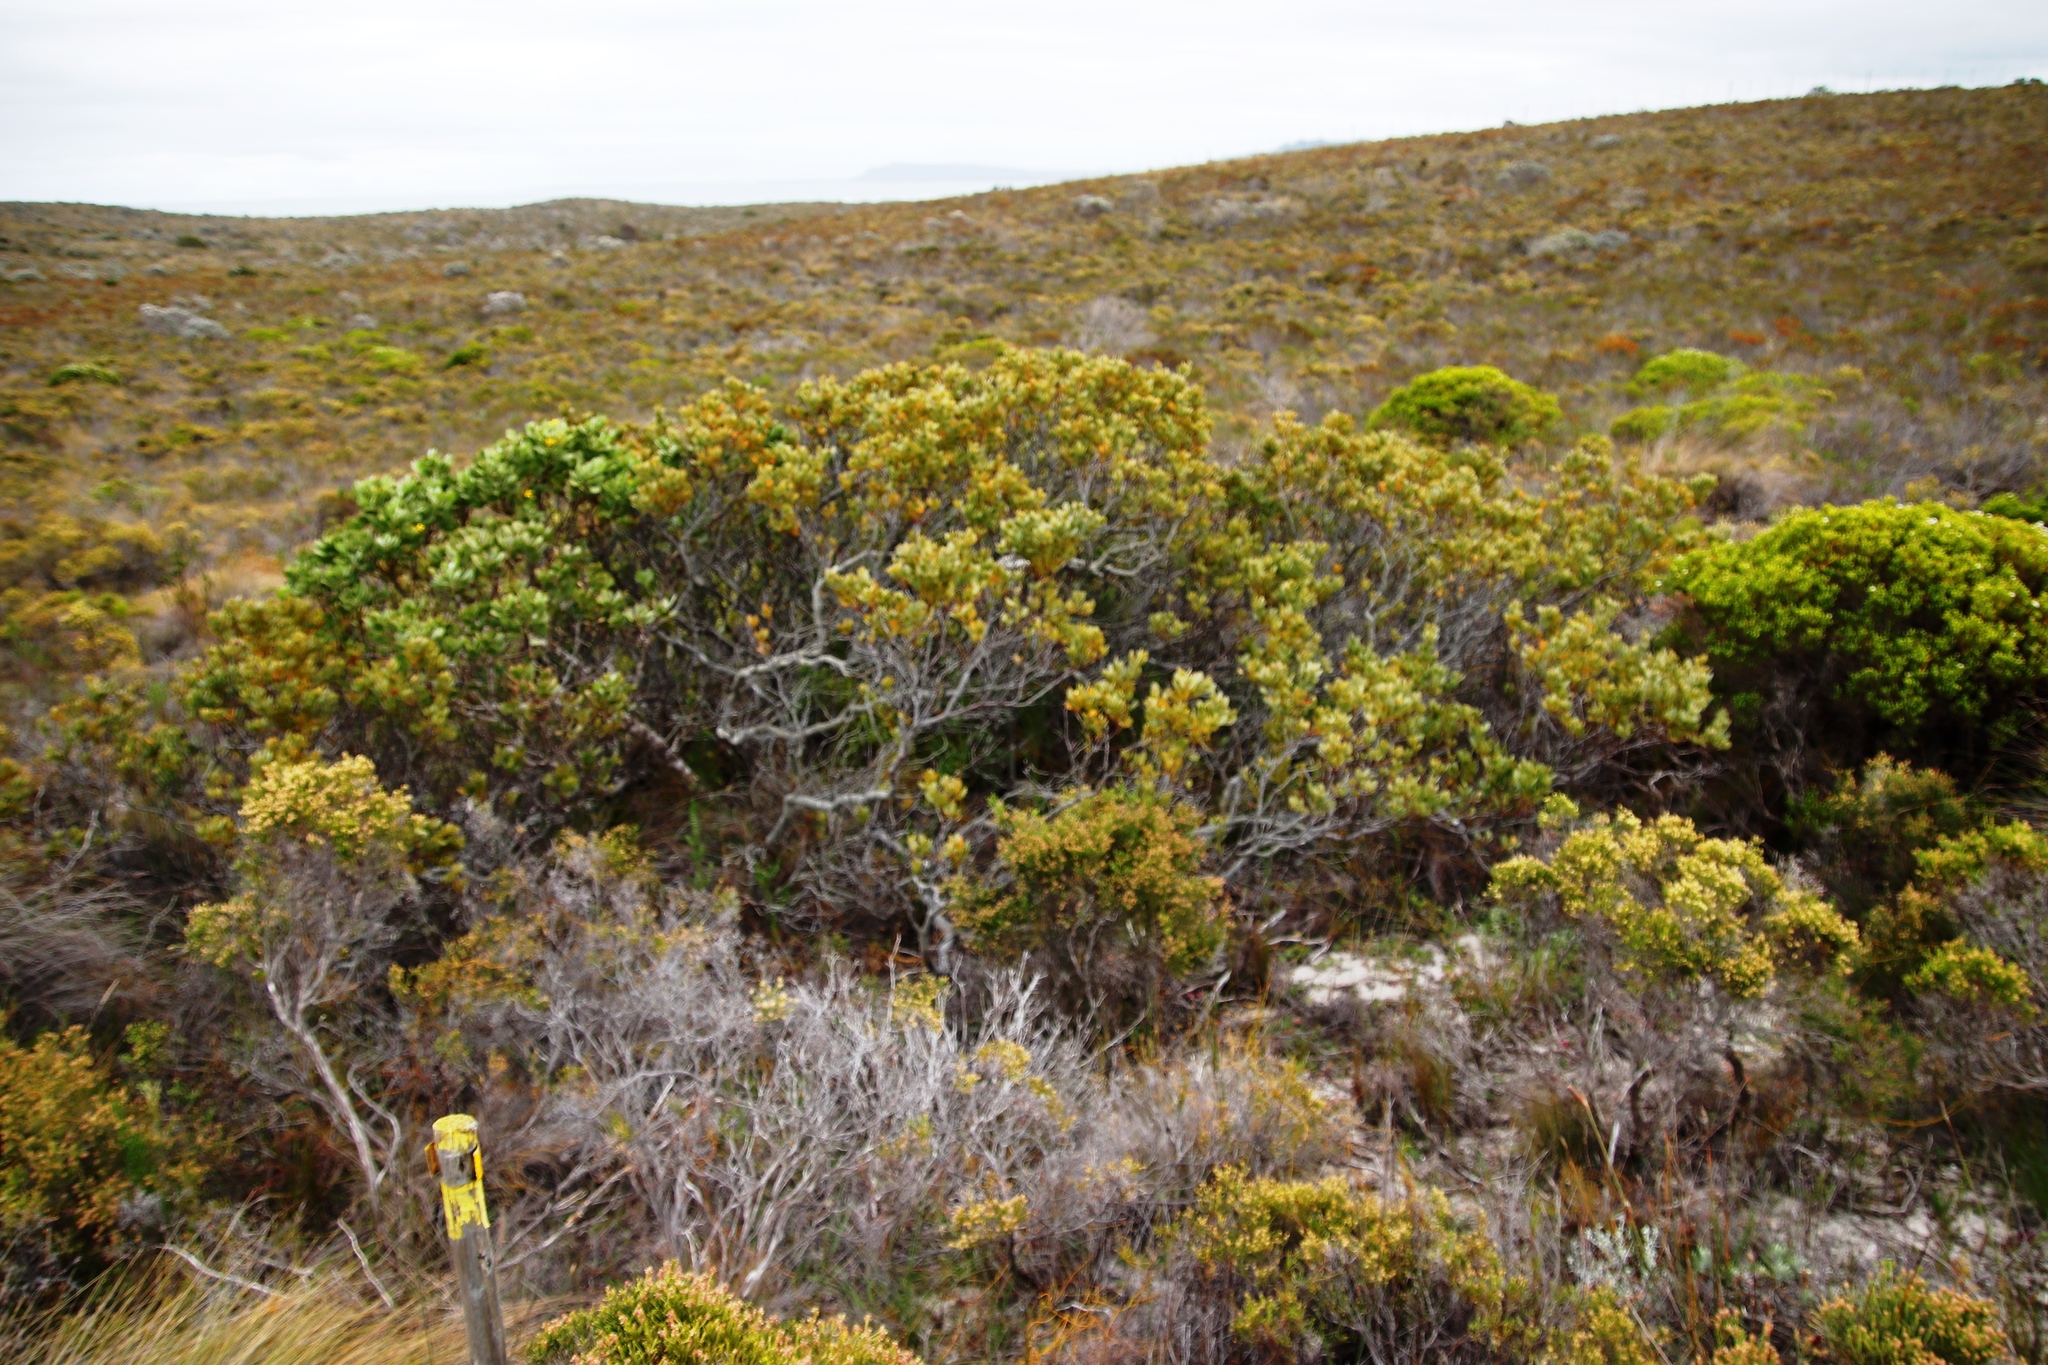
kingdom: Plantae
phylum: Tracheophyta
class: Magnoliopsida
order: Santalales
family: Santalaceae
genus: Osyris
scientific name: Osyris compressa
